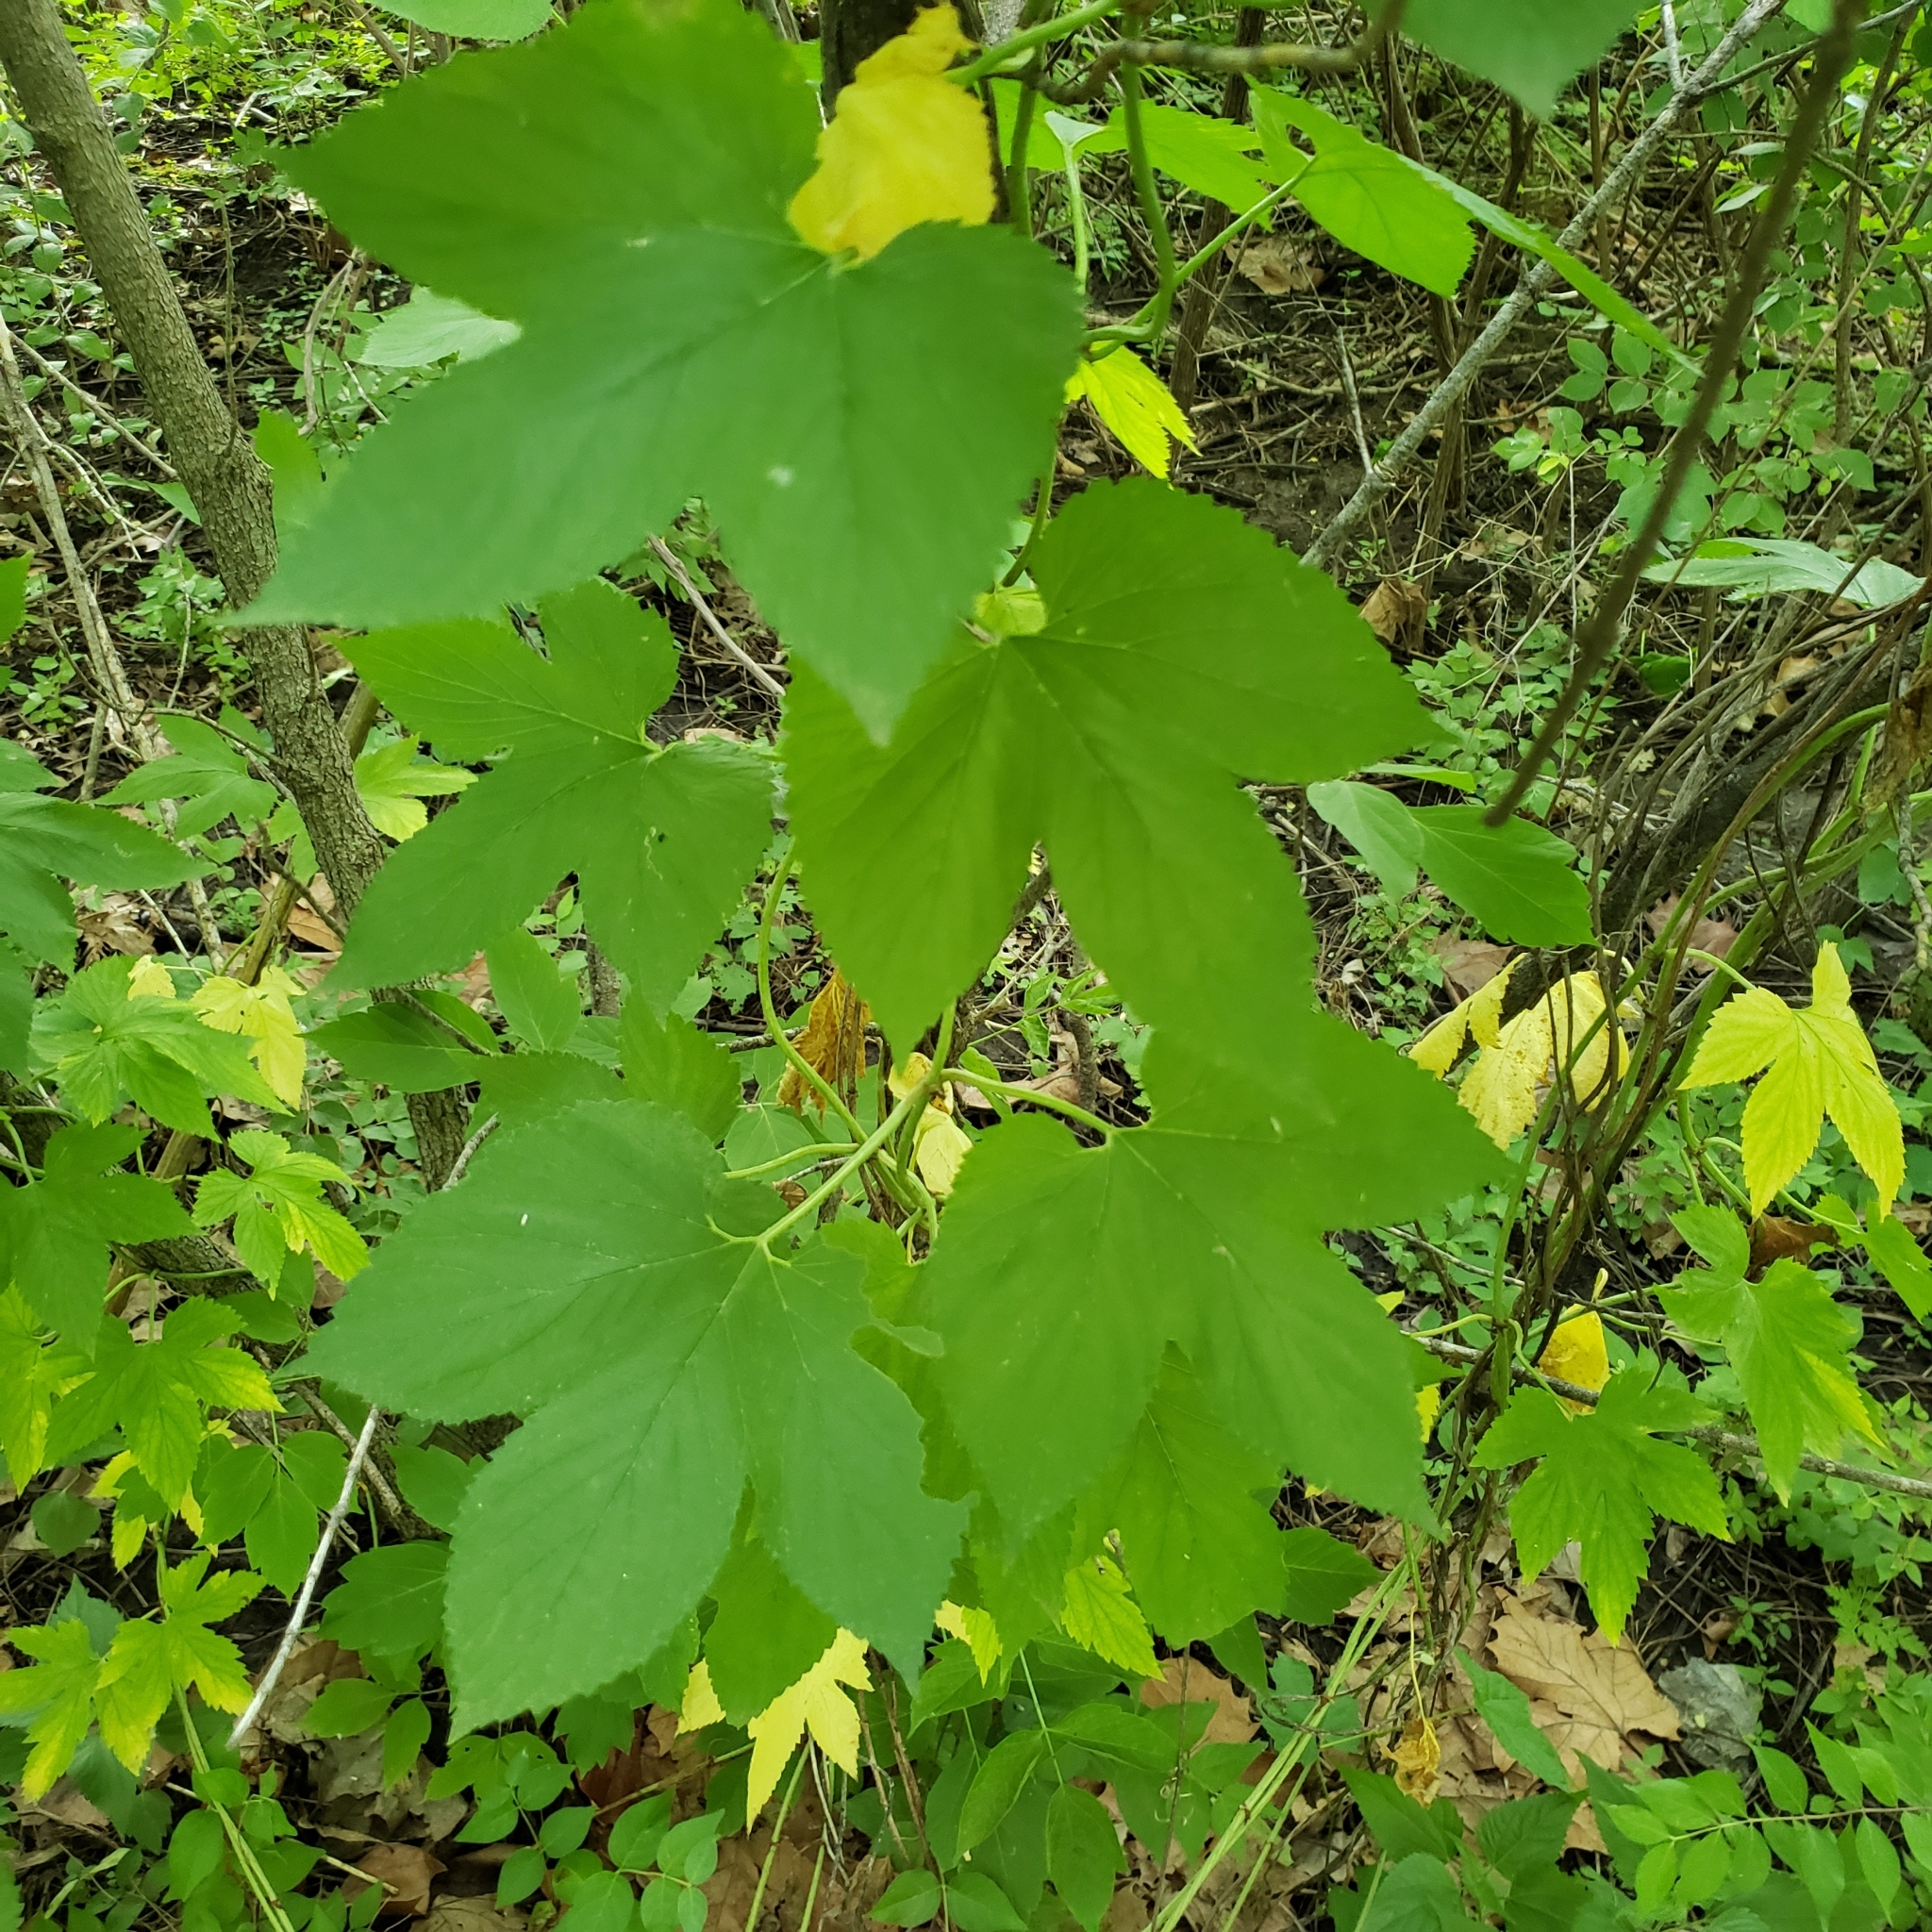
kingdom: Plantae
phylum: Tracheophyta
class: Magnoliopsida
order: Rosales
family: Cannabaceae
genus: Humulus
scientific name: Humulus lupulus
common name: Hop
